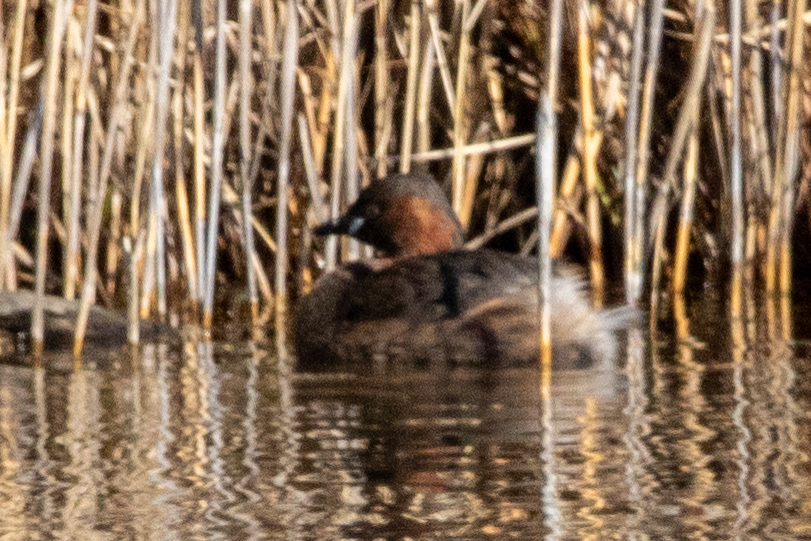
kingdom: Animalia
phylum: Chordata
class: Aves
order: Podicipediformes
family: Podicipedidae
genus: Tachybaptus
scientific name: Tachybaptus ruficollis
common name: Little grebe
